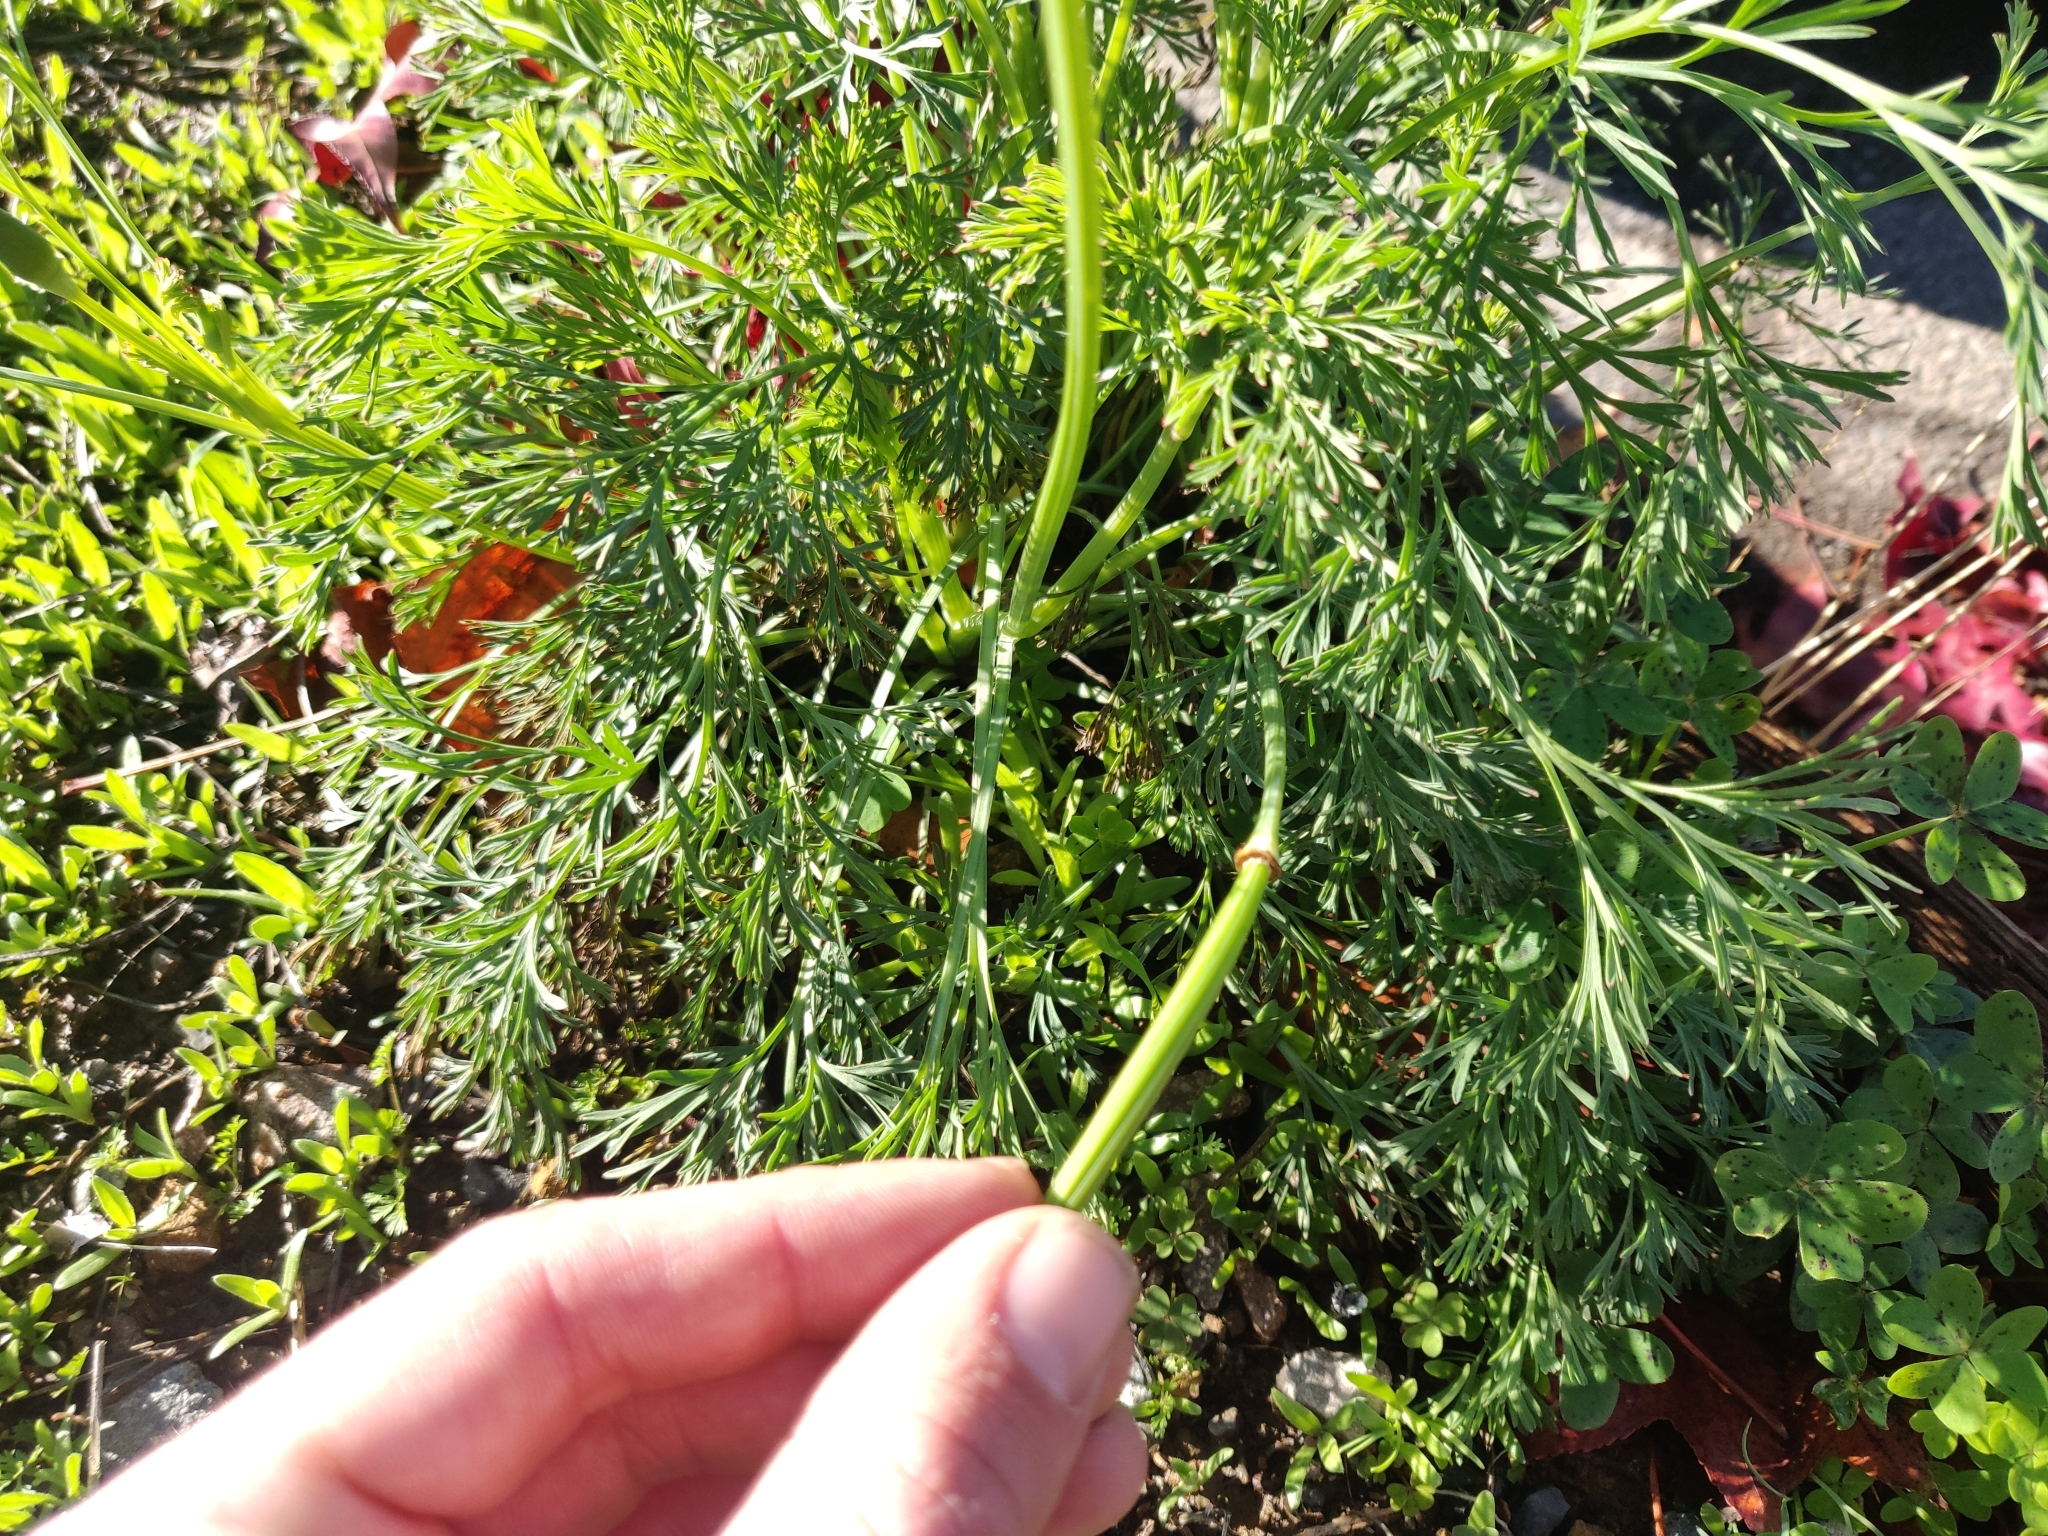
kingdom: Plantae
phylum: Tracheophyta
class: Magnoliopsida
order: Ranunculales
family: Papaveraceae
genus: Eschscholzia
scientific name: Eschscholzia californica
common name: California poppy
